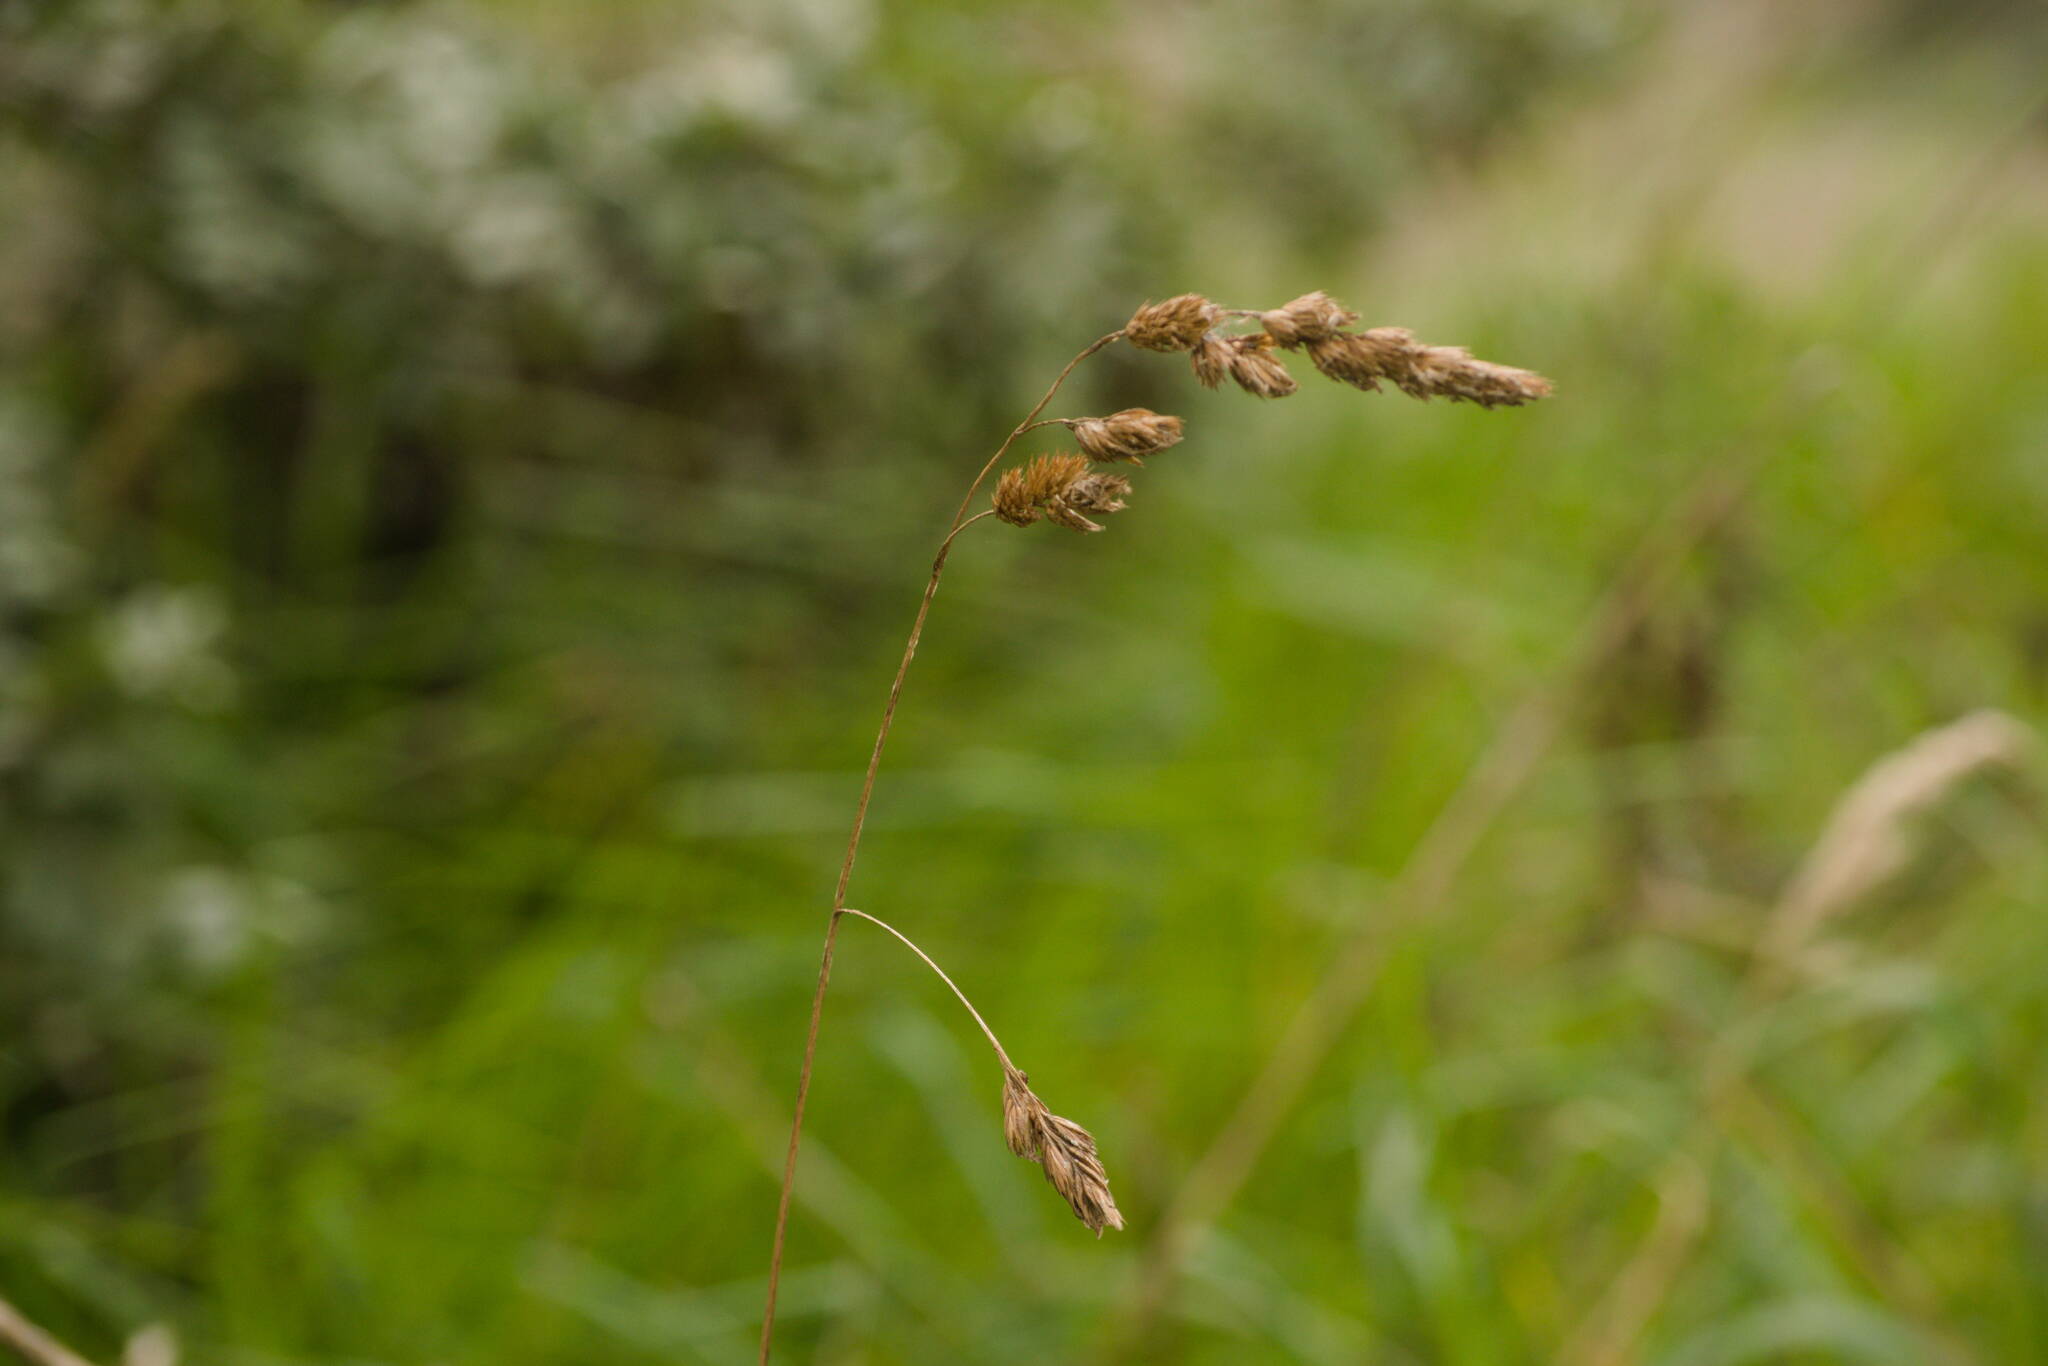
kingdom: Plantae
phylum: Tracheophyta
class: Liliopsida
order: Poales
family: Poaceae
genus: Dactylis
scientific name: Dactylis glomerata
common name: Orchardgrass
